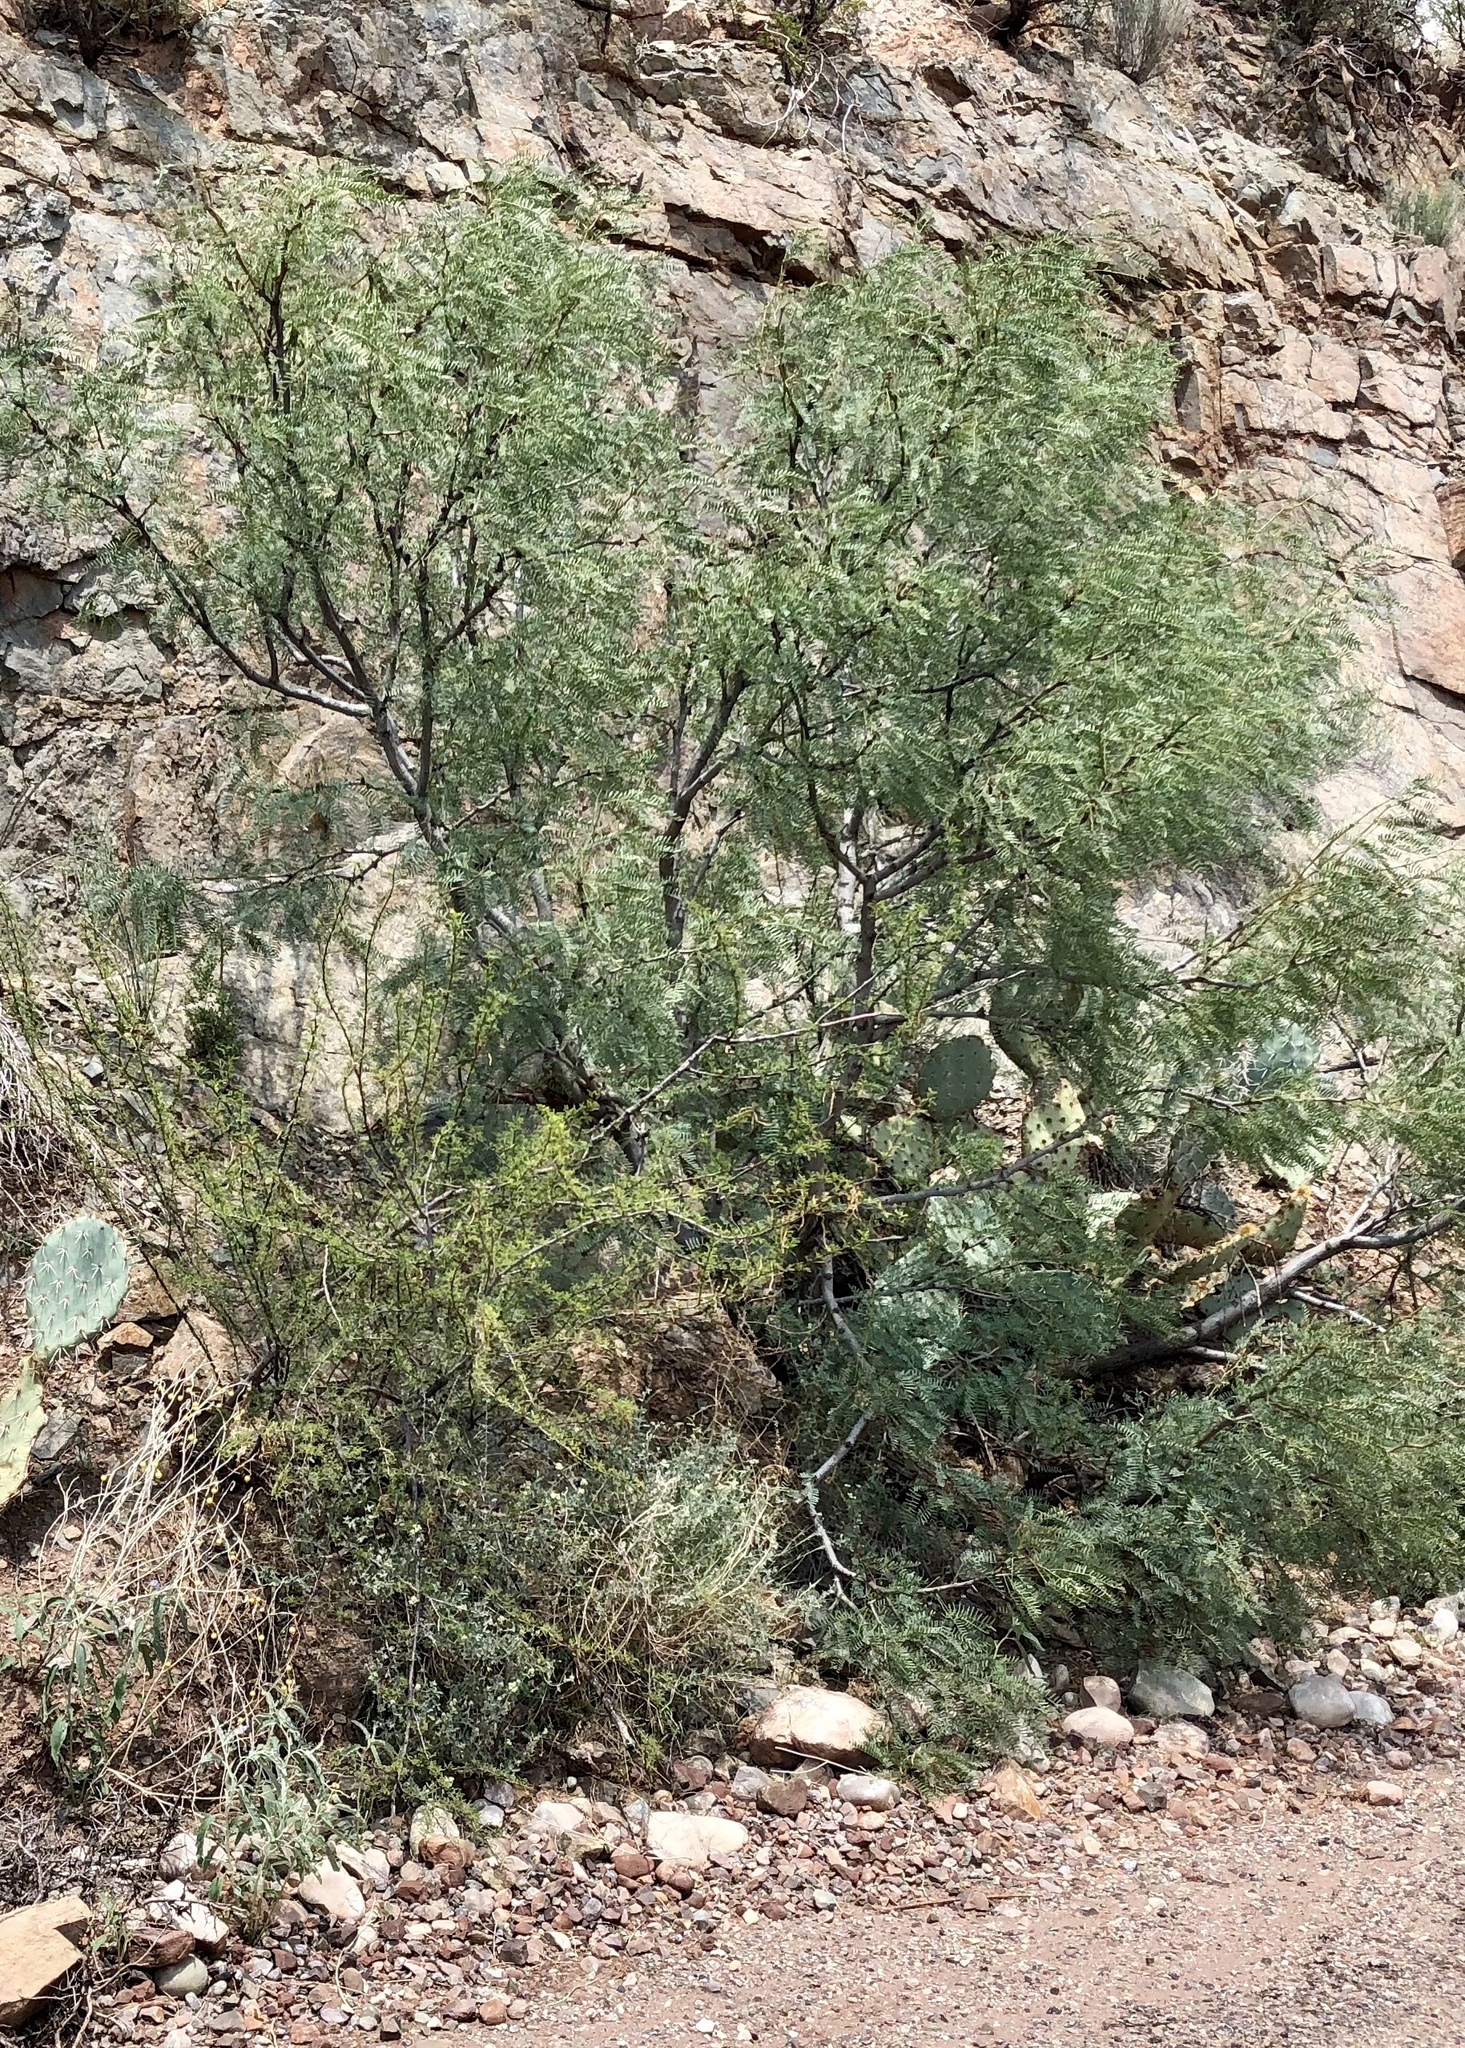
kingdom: Plantae
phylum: Tracheophyta
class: Magnoliopsida
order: Fabales
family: Fabaceae
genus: Prosopis
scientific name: Prosopis glandulosa
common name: Honey mesquite
